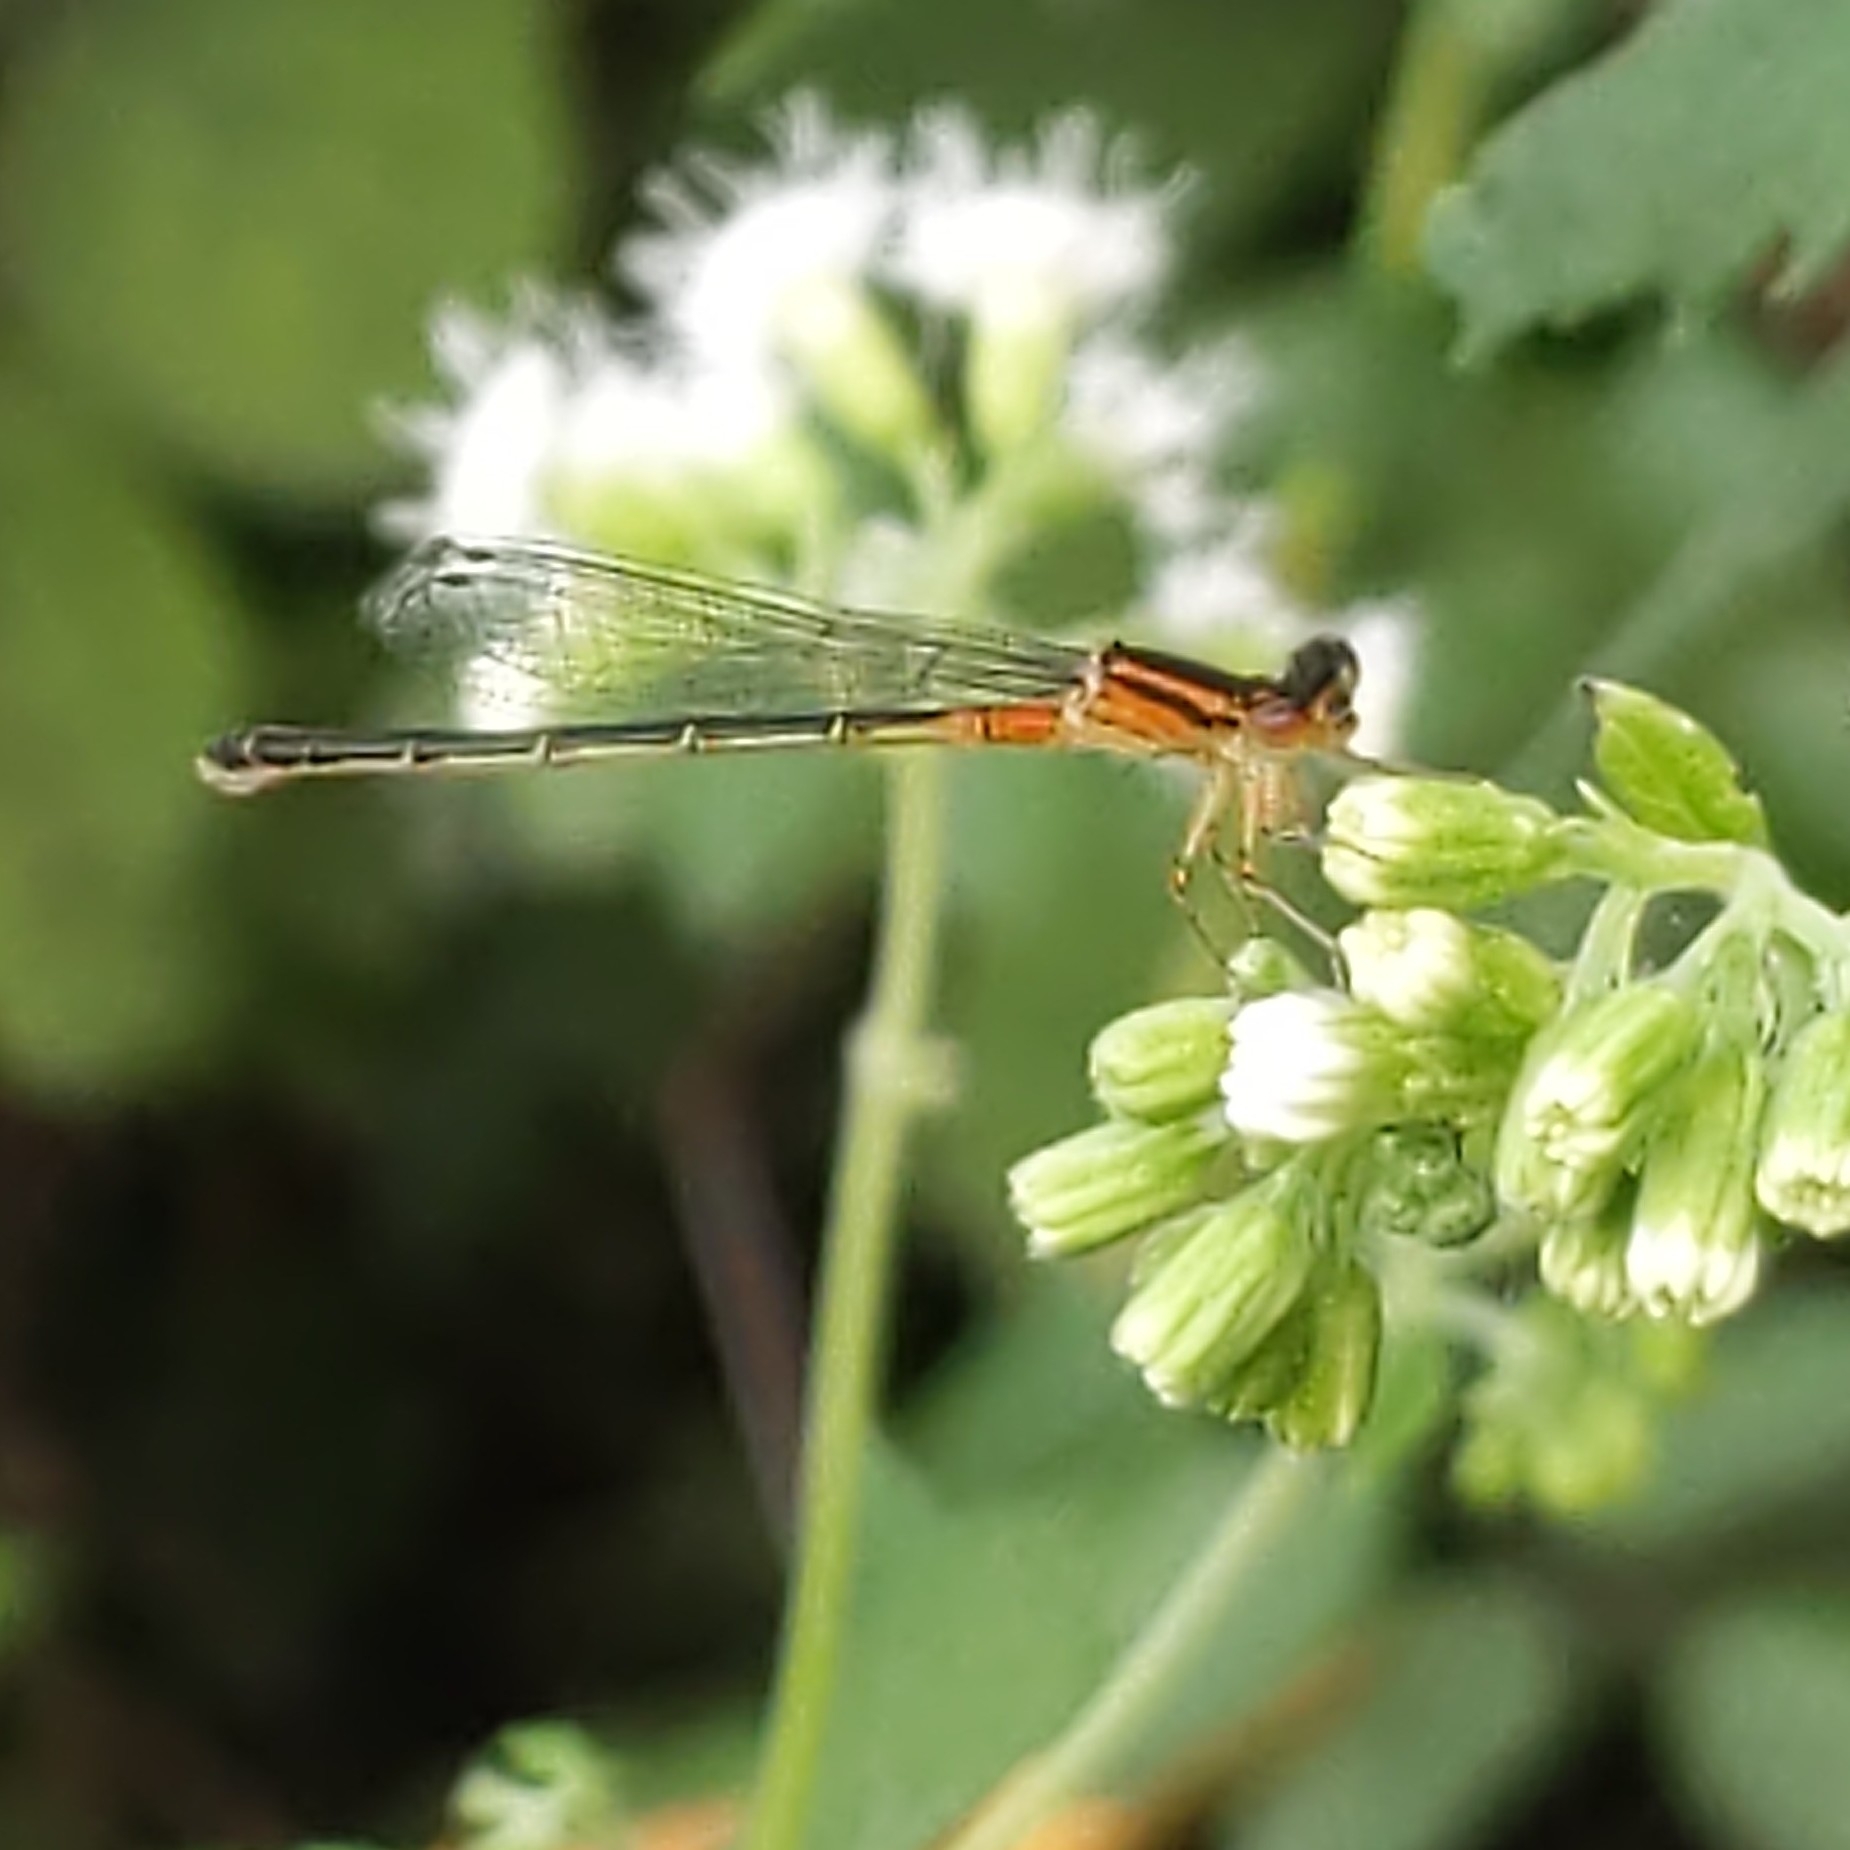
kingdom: Animalia
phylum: Arthropoda
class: Insecta
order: Odonata
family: Coenagrionidae
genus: Ischnura
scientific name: Ischnura verticalis
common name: Eastern forktail
